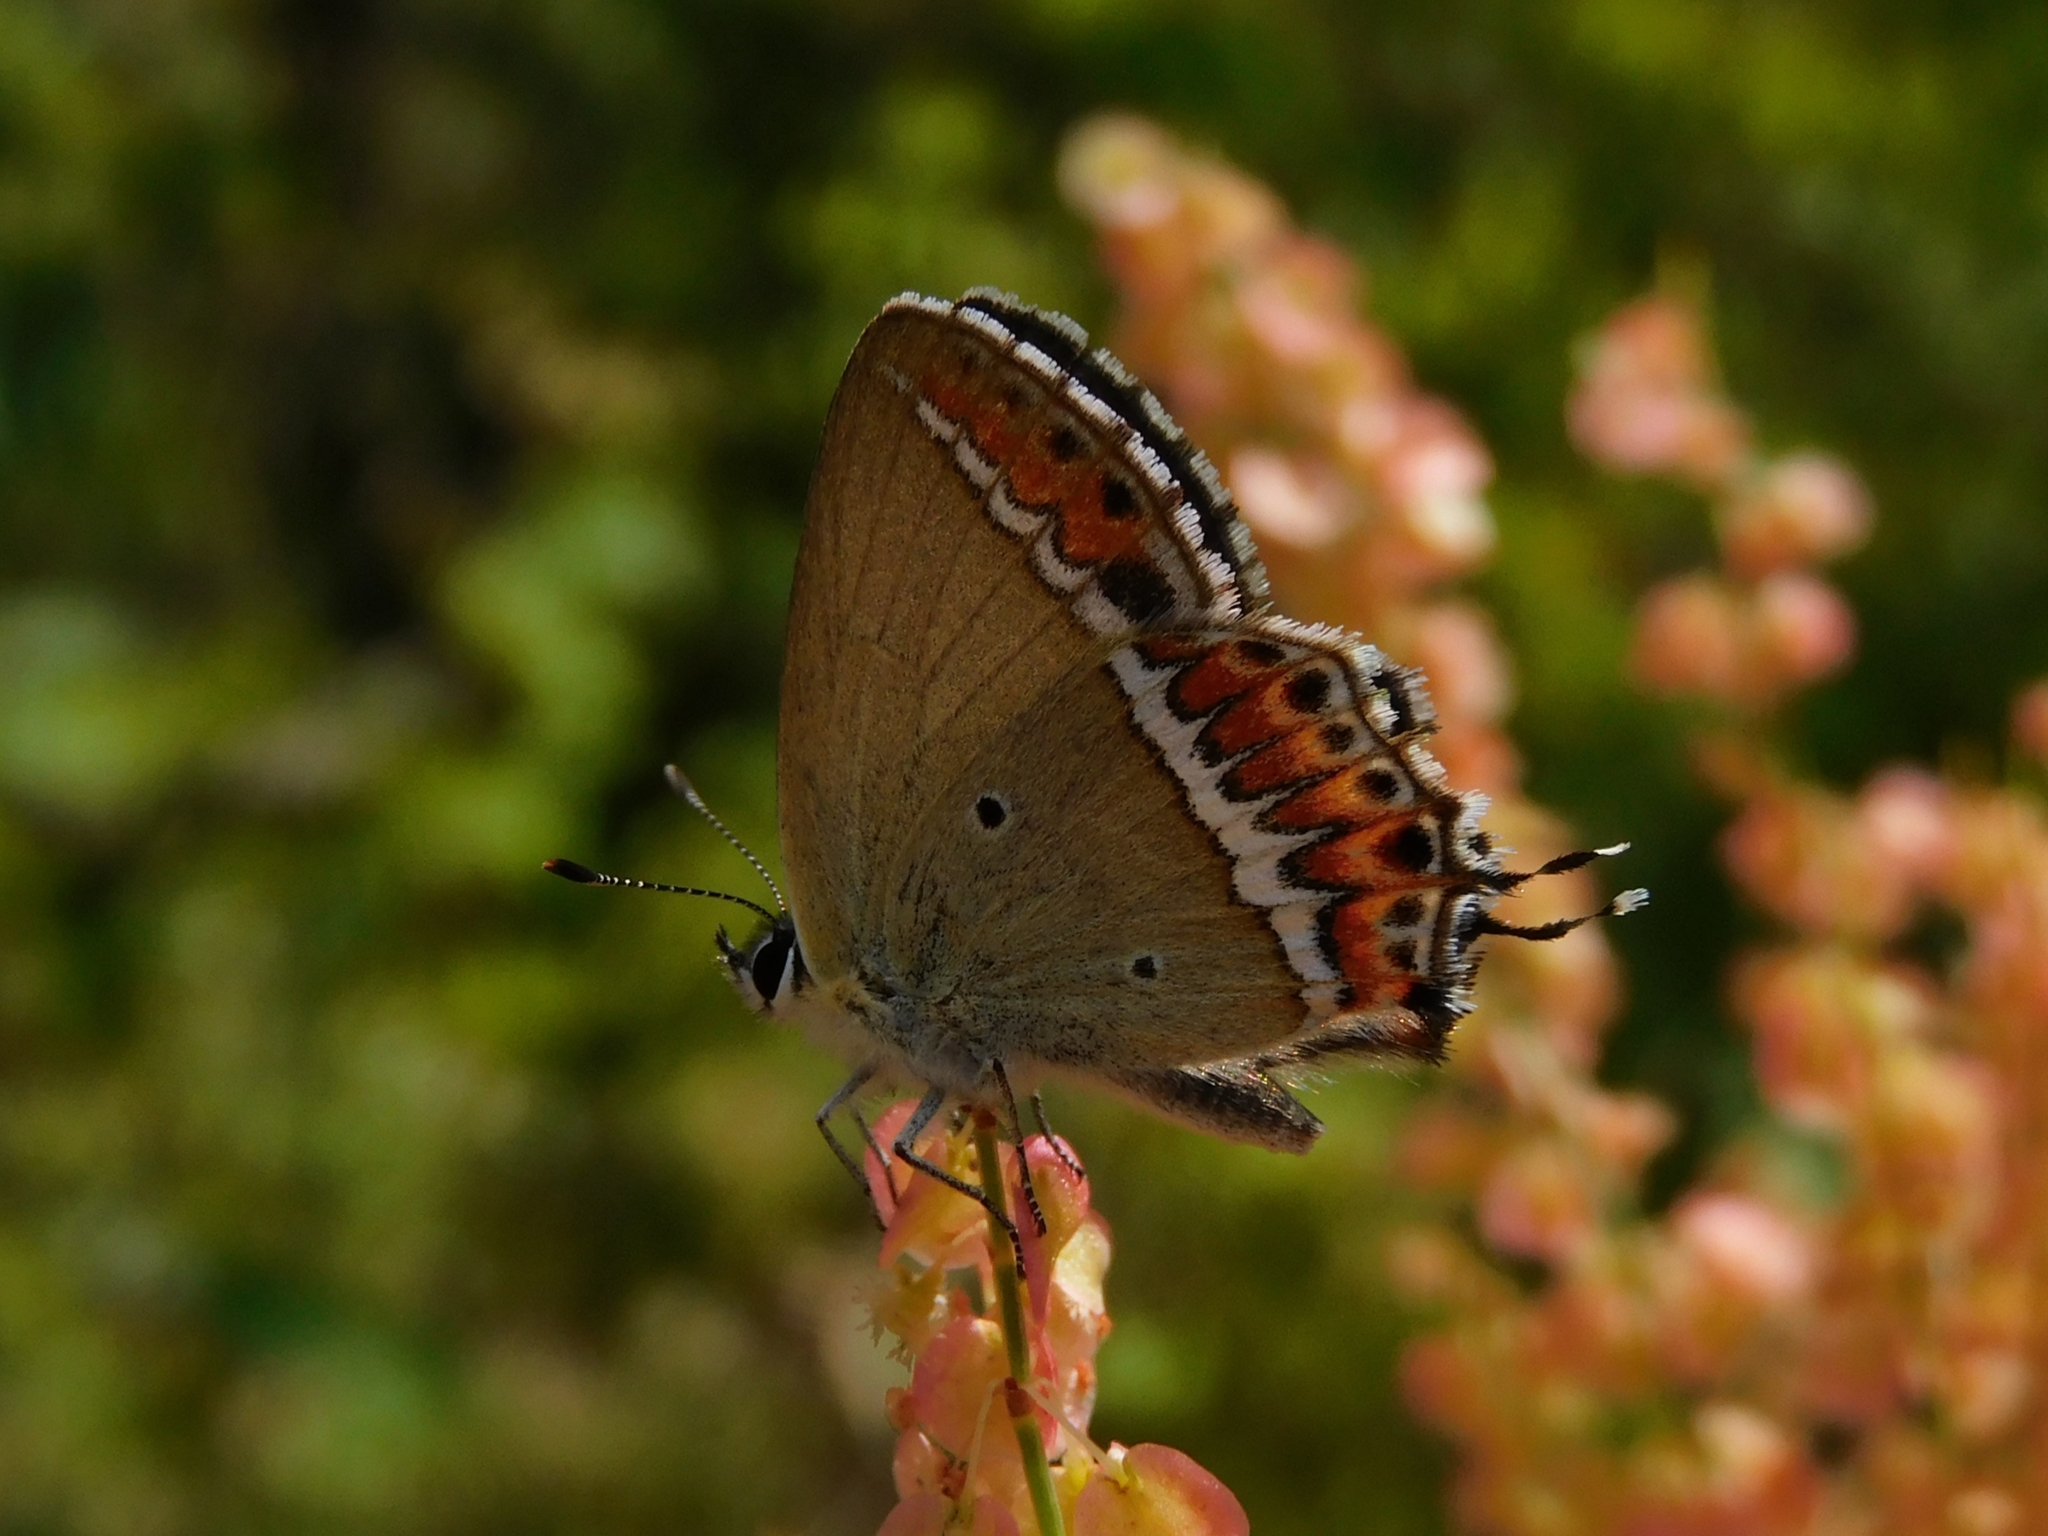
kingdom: Animalia
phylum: Arthropoda
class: Insecta
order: Lepidoptera
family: Lycaenidae
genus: Heliophorus
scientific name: Heliophorus sena
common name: Sorrel sapphire
